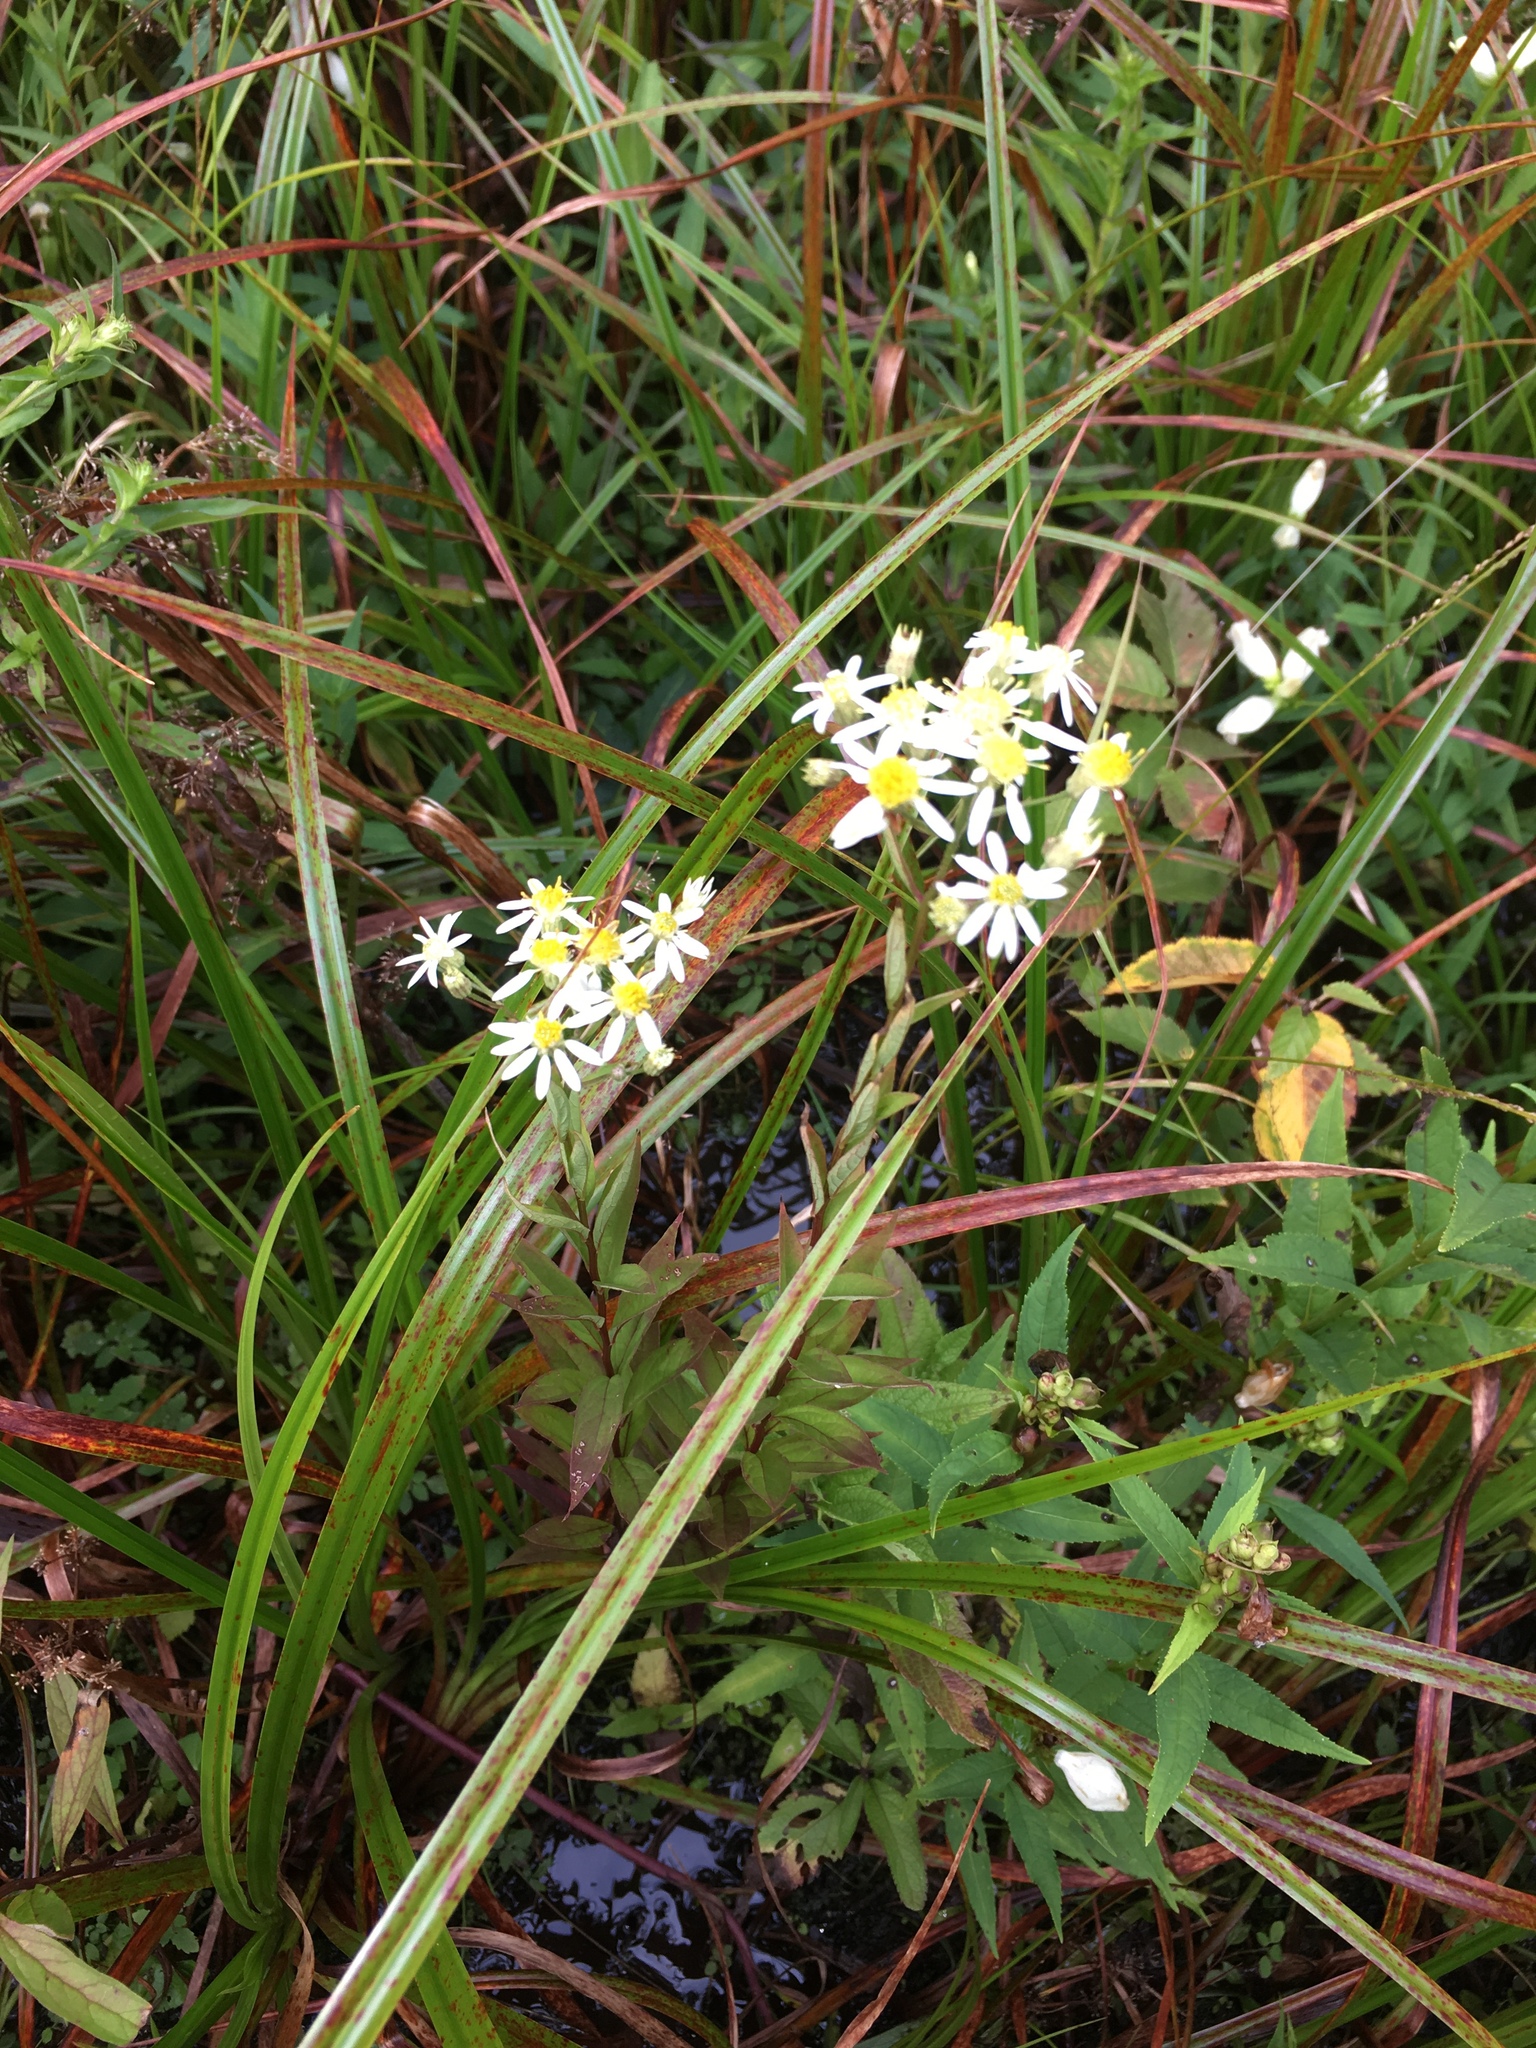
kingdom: Plantae
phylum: Tracheophyta
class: Magnoliopsida
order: Asterales
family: Asteraceae
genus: Doellingeria
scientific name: Doellingeria umbellata
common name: Flat-top white aster
